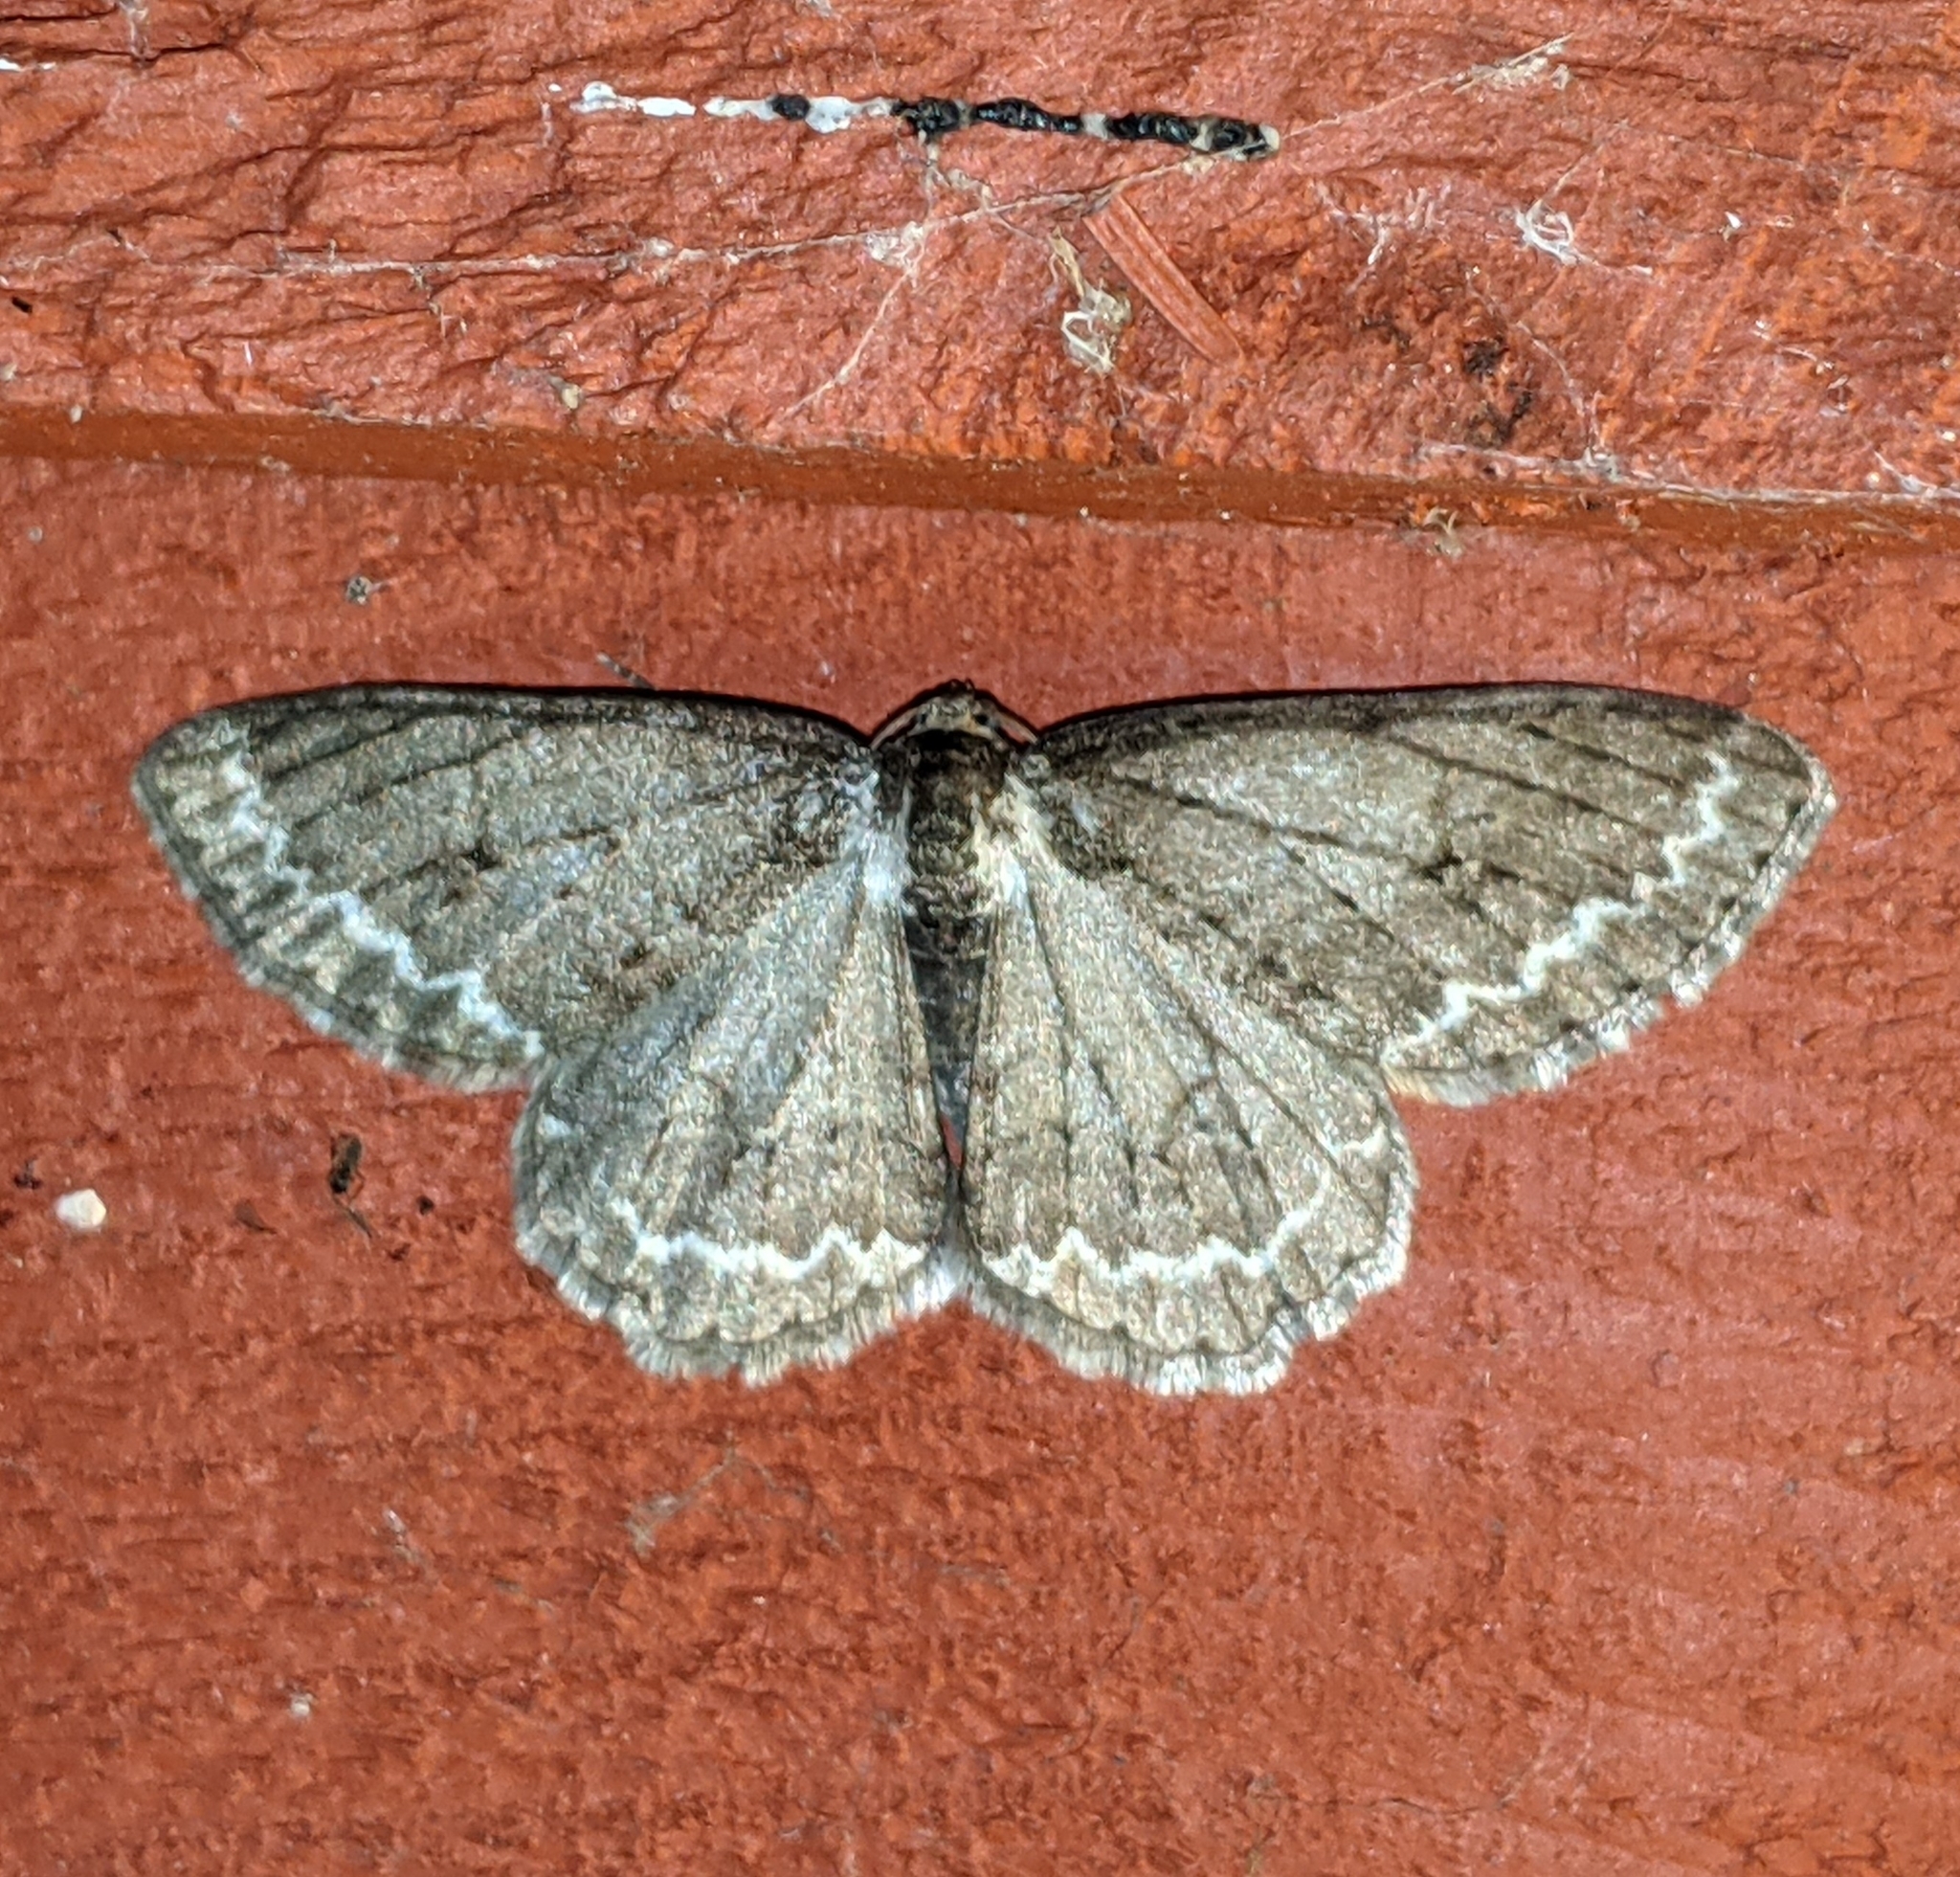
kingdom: Animalia
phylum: Arthropoda
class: Insecta
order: Lepidoptera
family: Geometridae
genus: Ectropis
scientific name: Ectropis crepuscularia
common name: Engrailed
